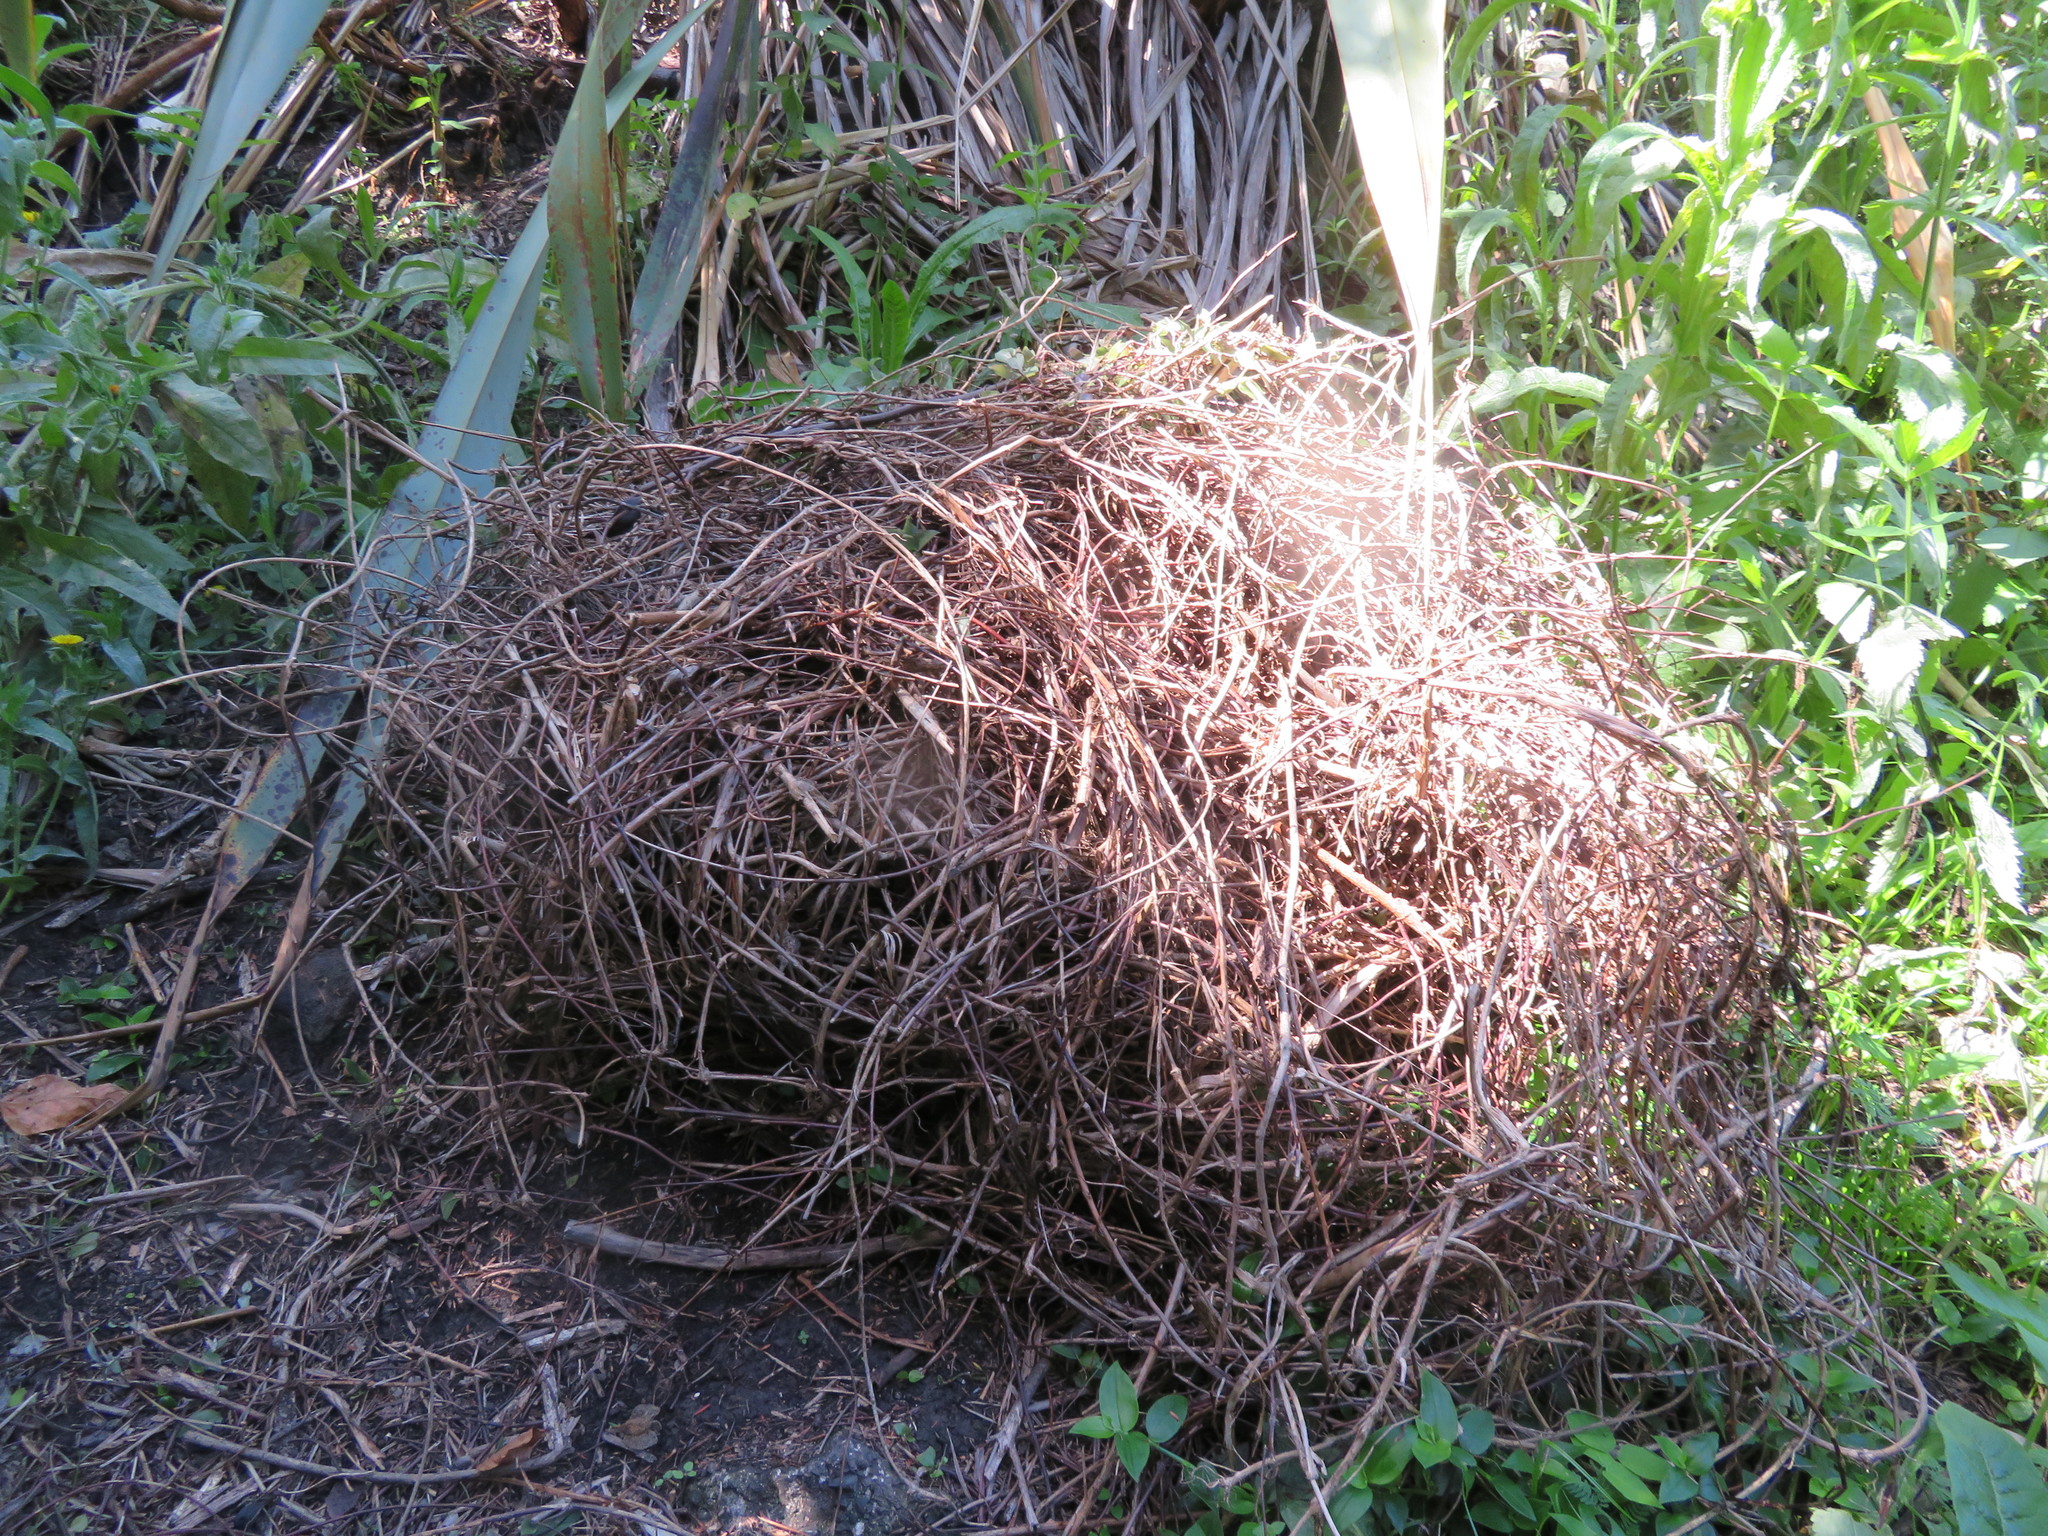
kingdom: Plantae
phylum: Tracheophyta
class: Magnoliopsida
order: Dipsacales
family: Caprifoliaceae
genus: Lonicera
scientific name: Lonicera japonica
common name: Japanese honeysuckle
